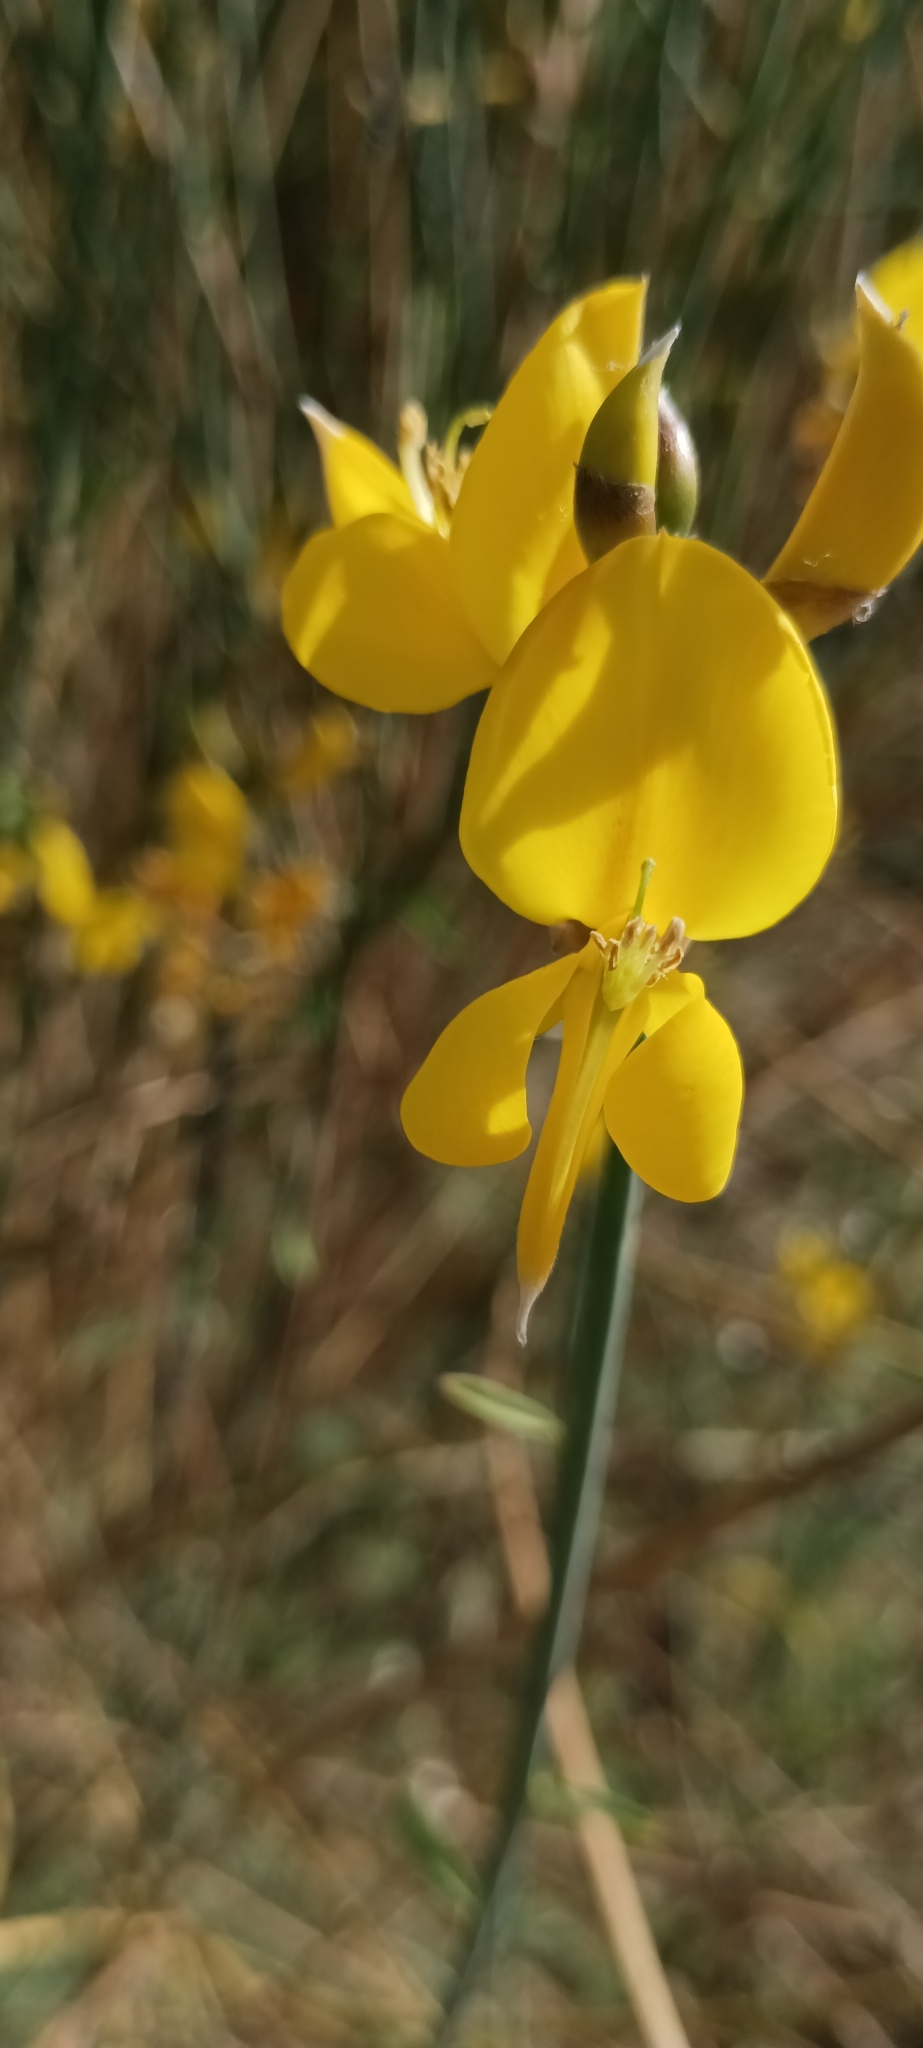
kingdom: Plantae
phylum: Tracheophyta
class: Magnoliopsida
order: Fabales
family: Fabaceae
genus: Spartium
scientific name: Spartium junceum
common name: Spanish broom
